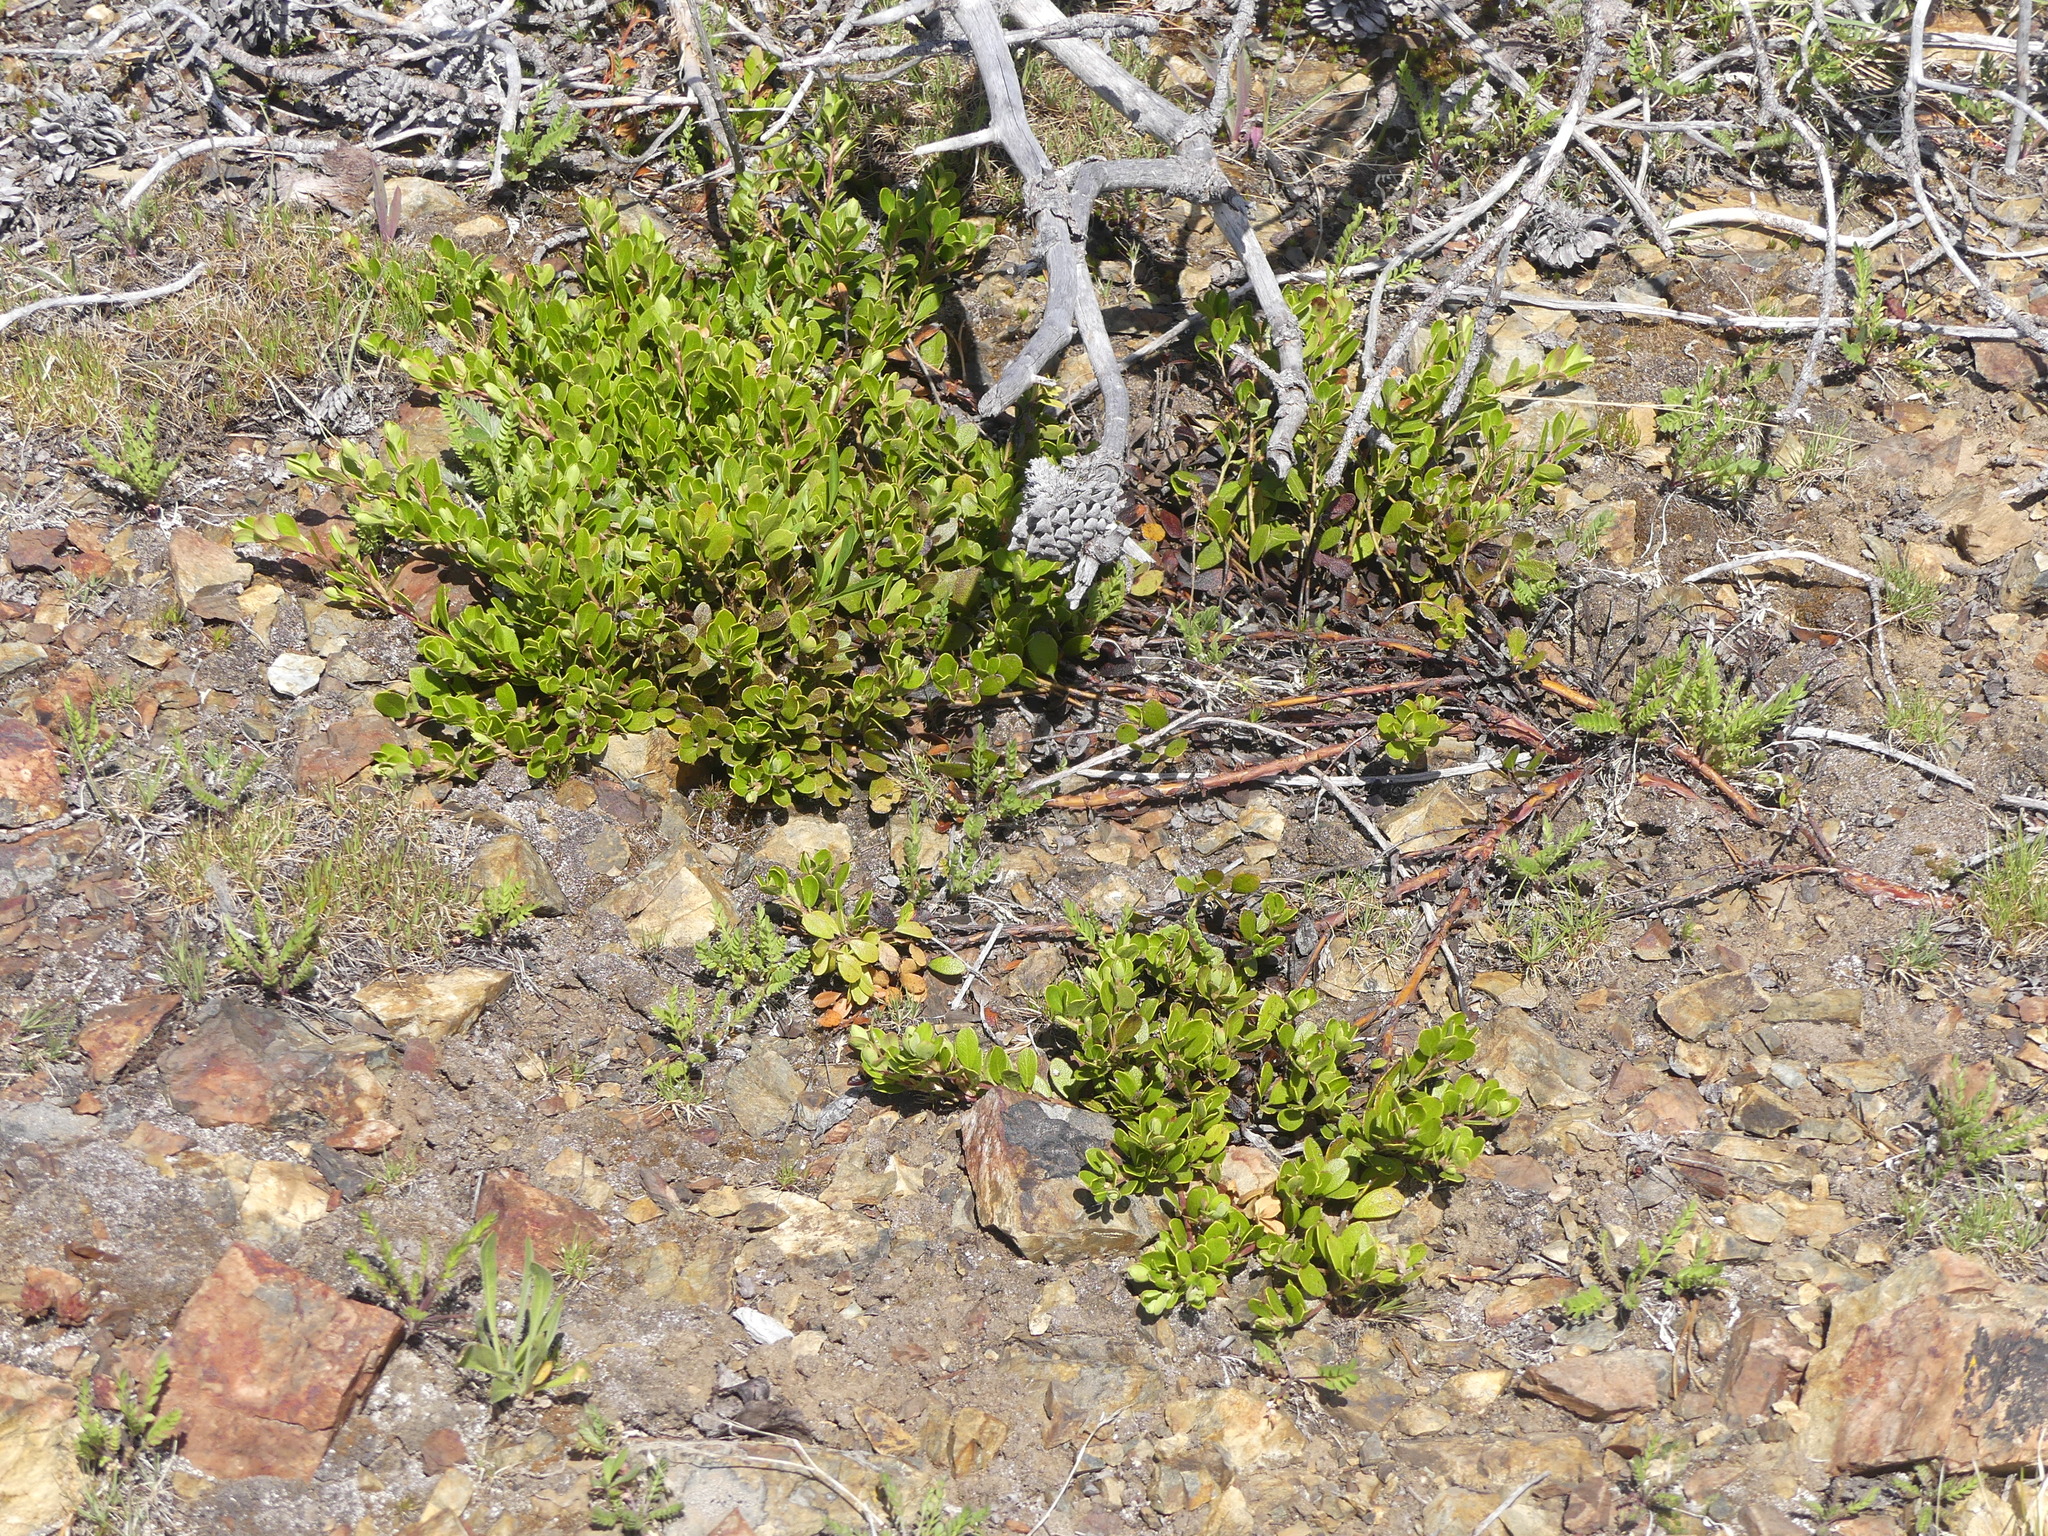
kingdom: Plantae
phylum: Tracheophyta
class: Magnoliopsida
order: Ericales
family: Ericaceae
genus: Arctostaphylos
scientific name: Arctostaphylos uva-ursi
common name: Bearberry
